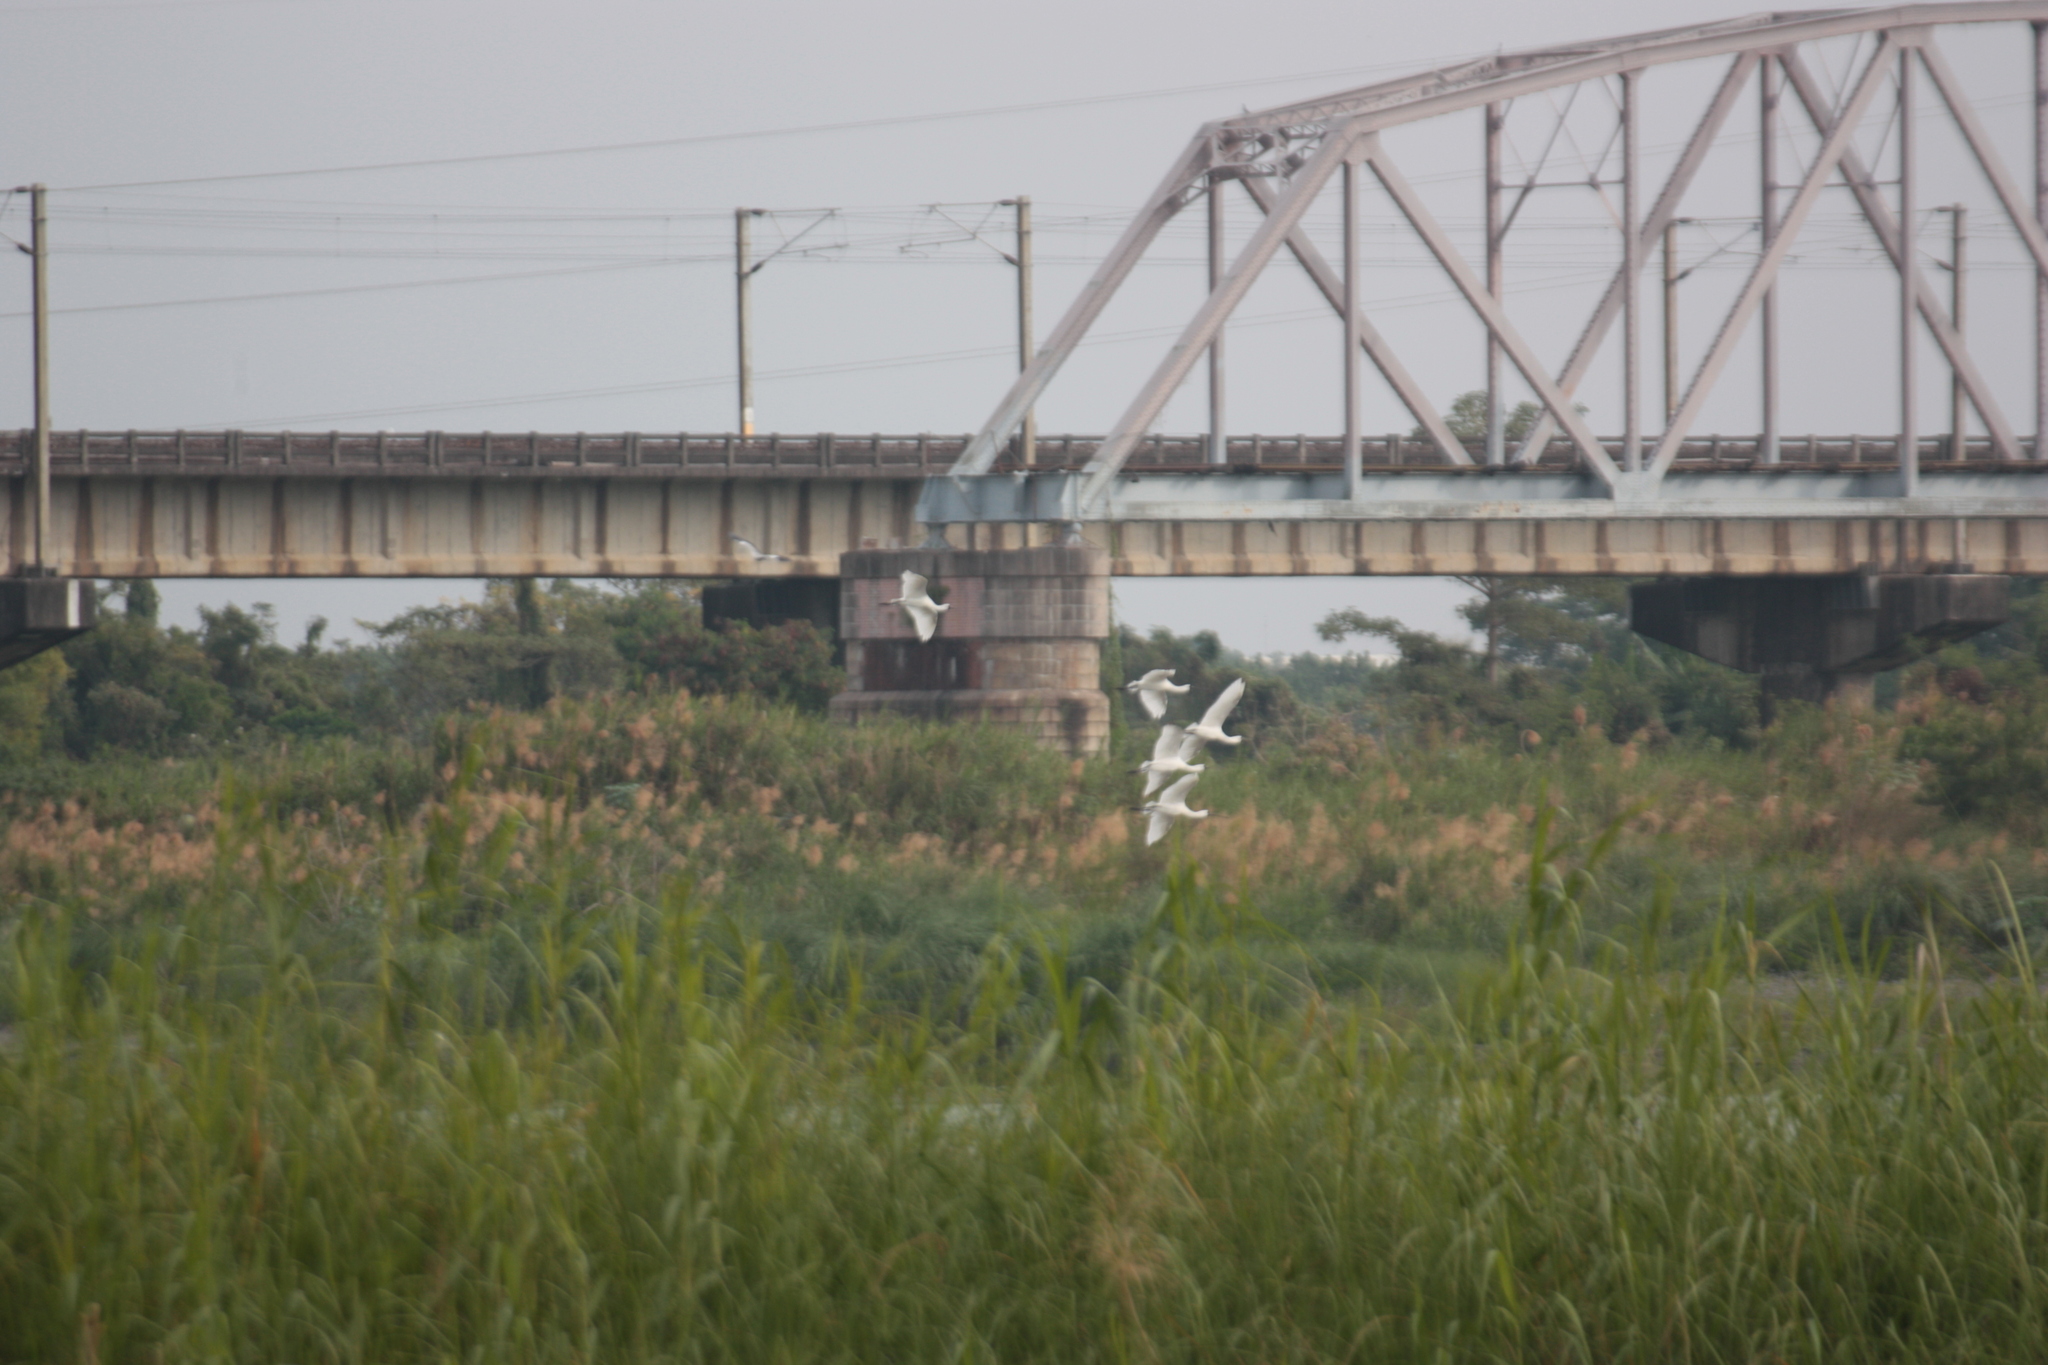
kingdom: Animalia
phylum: Chordata
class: Aves
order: Pelecaniformes
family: Threskiornithidae
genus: Platalea
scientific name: Platalea minor
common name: Black-faced spoonbill
